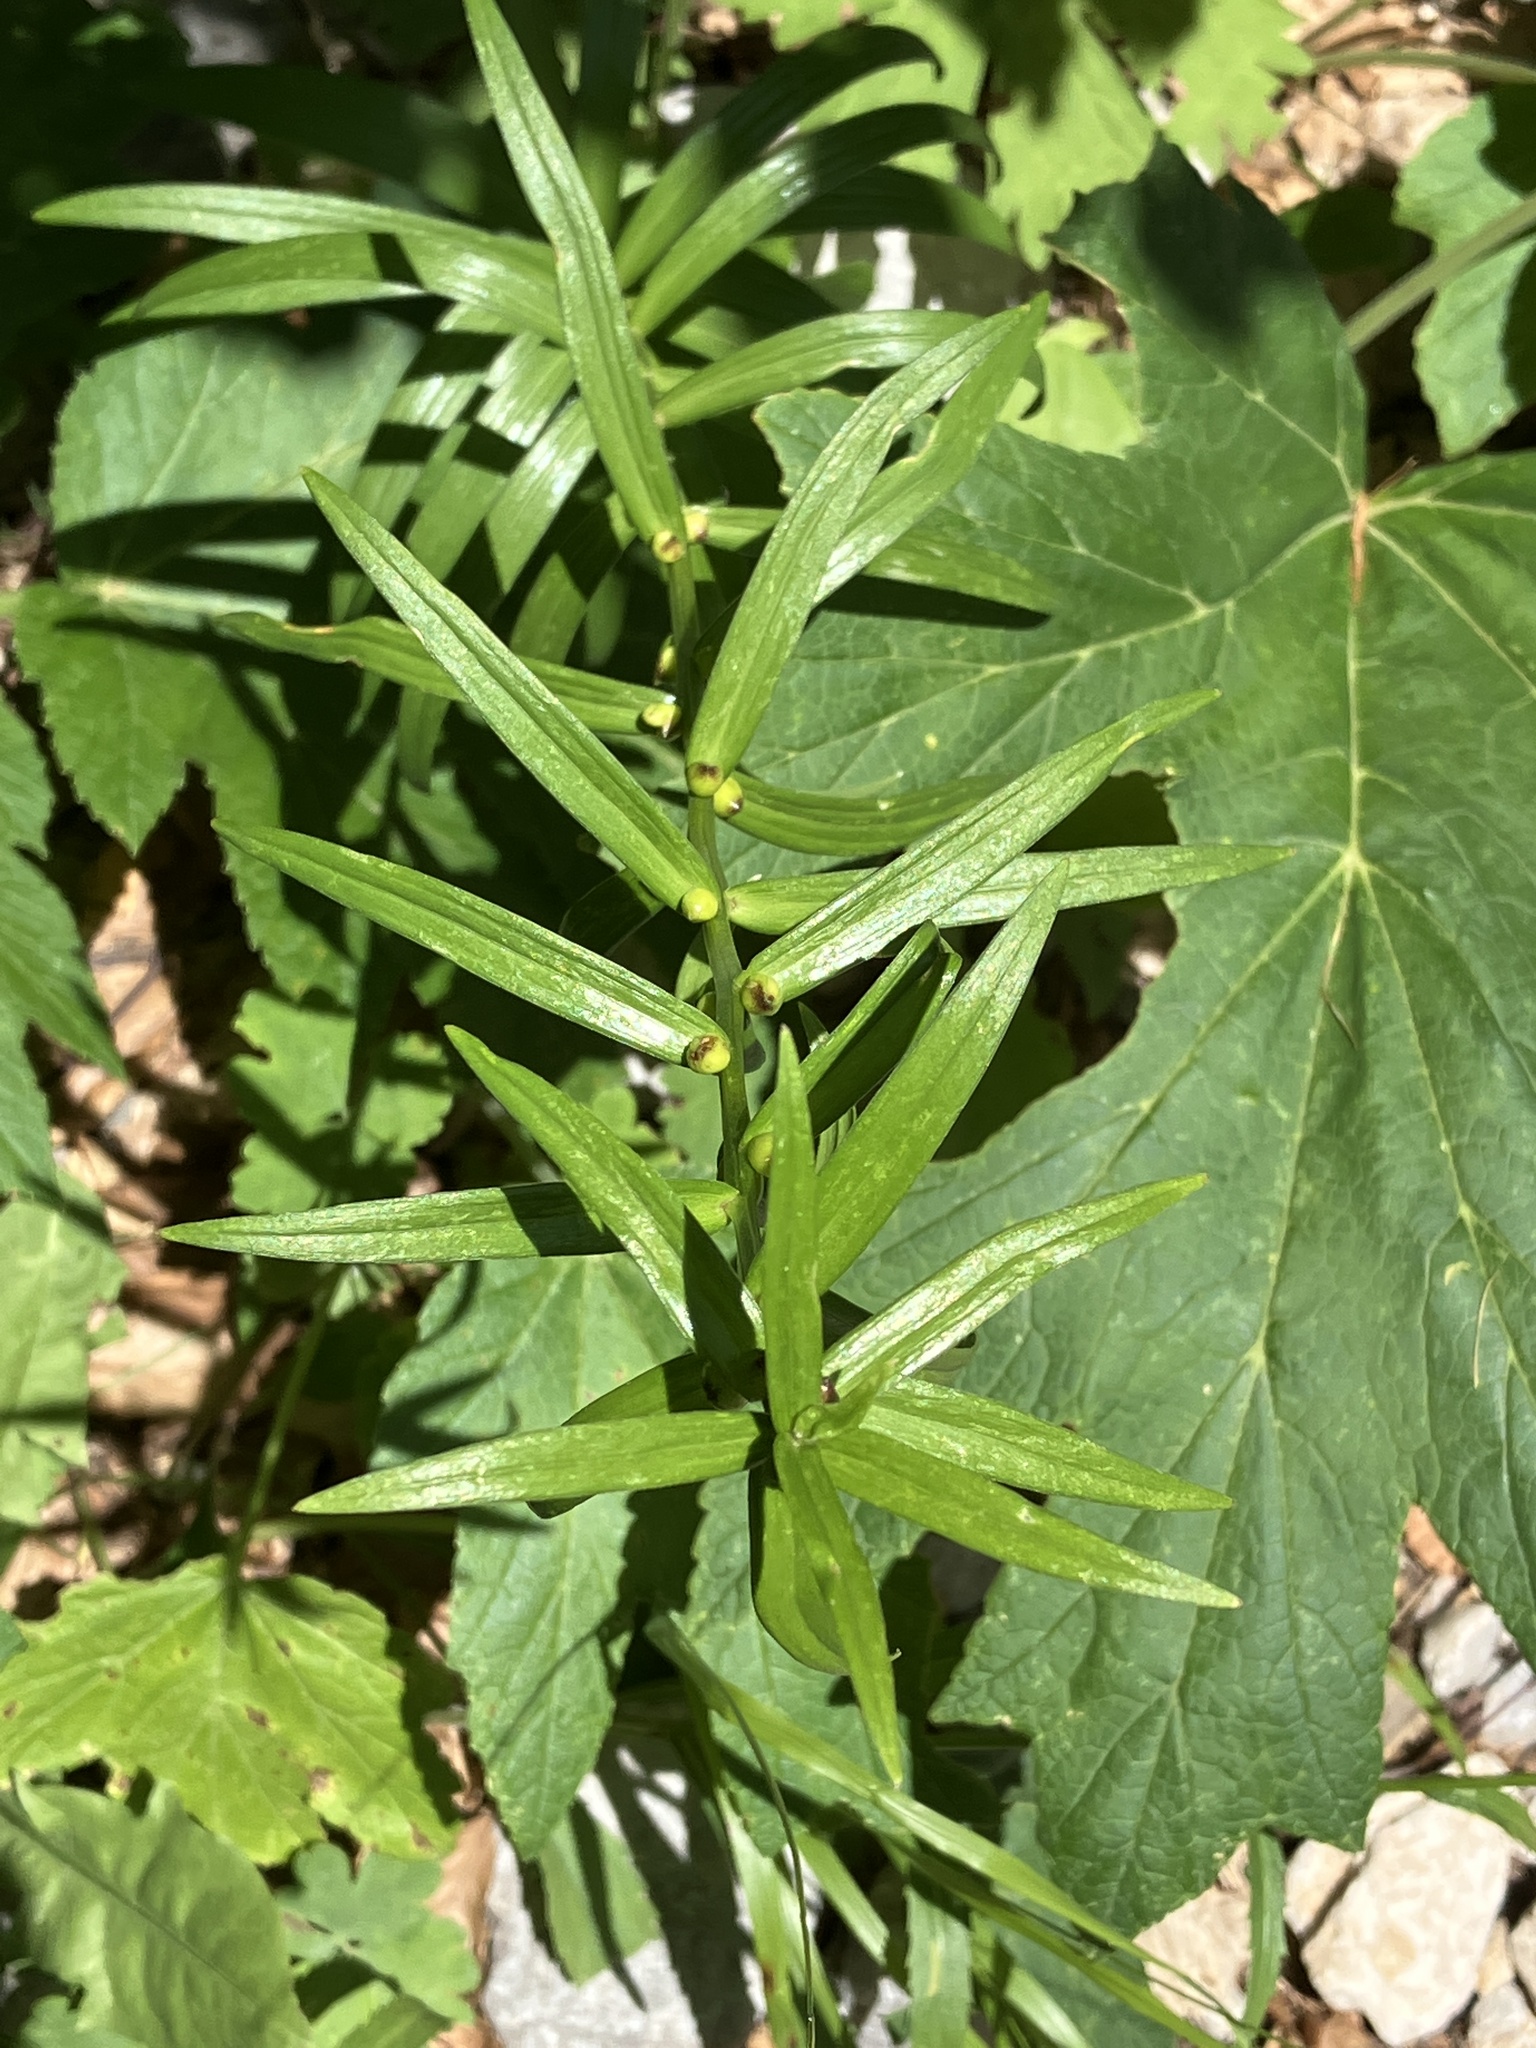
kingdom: Plantae
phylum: Tracheophyta
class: Liliopsida
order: Liliales
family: Liliaceae
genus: Lilium
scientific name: Lilium bulbiferum
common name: Orange lily
